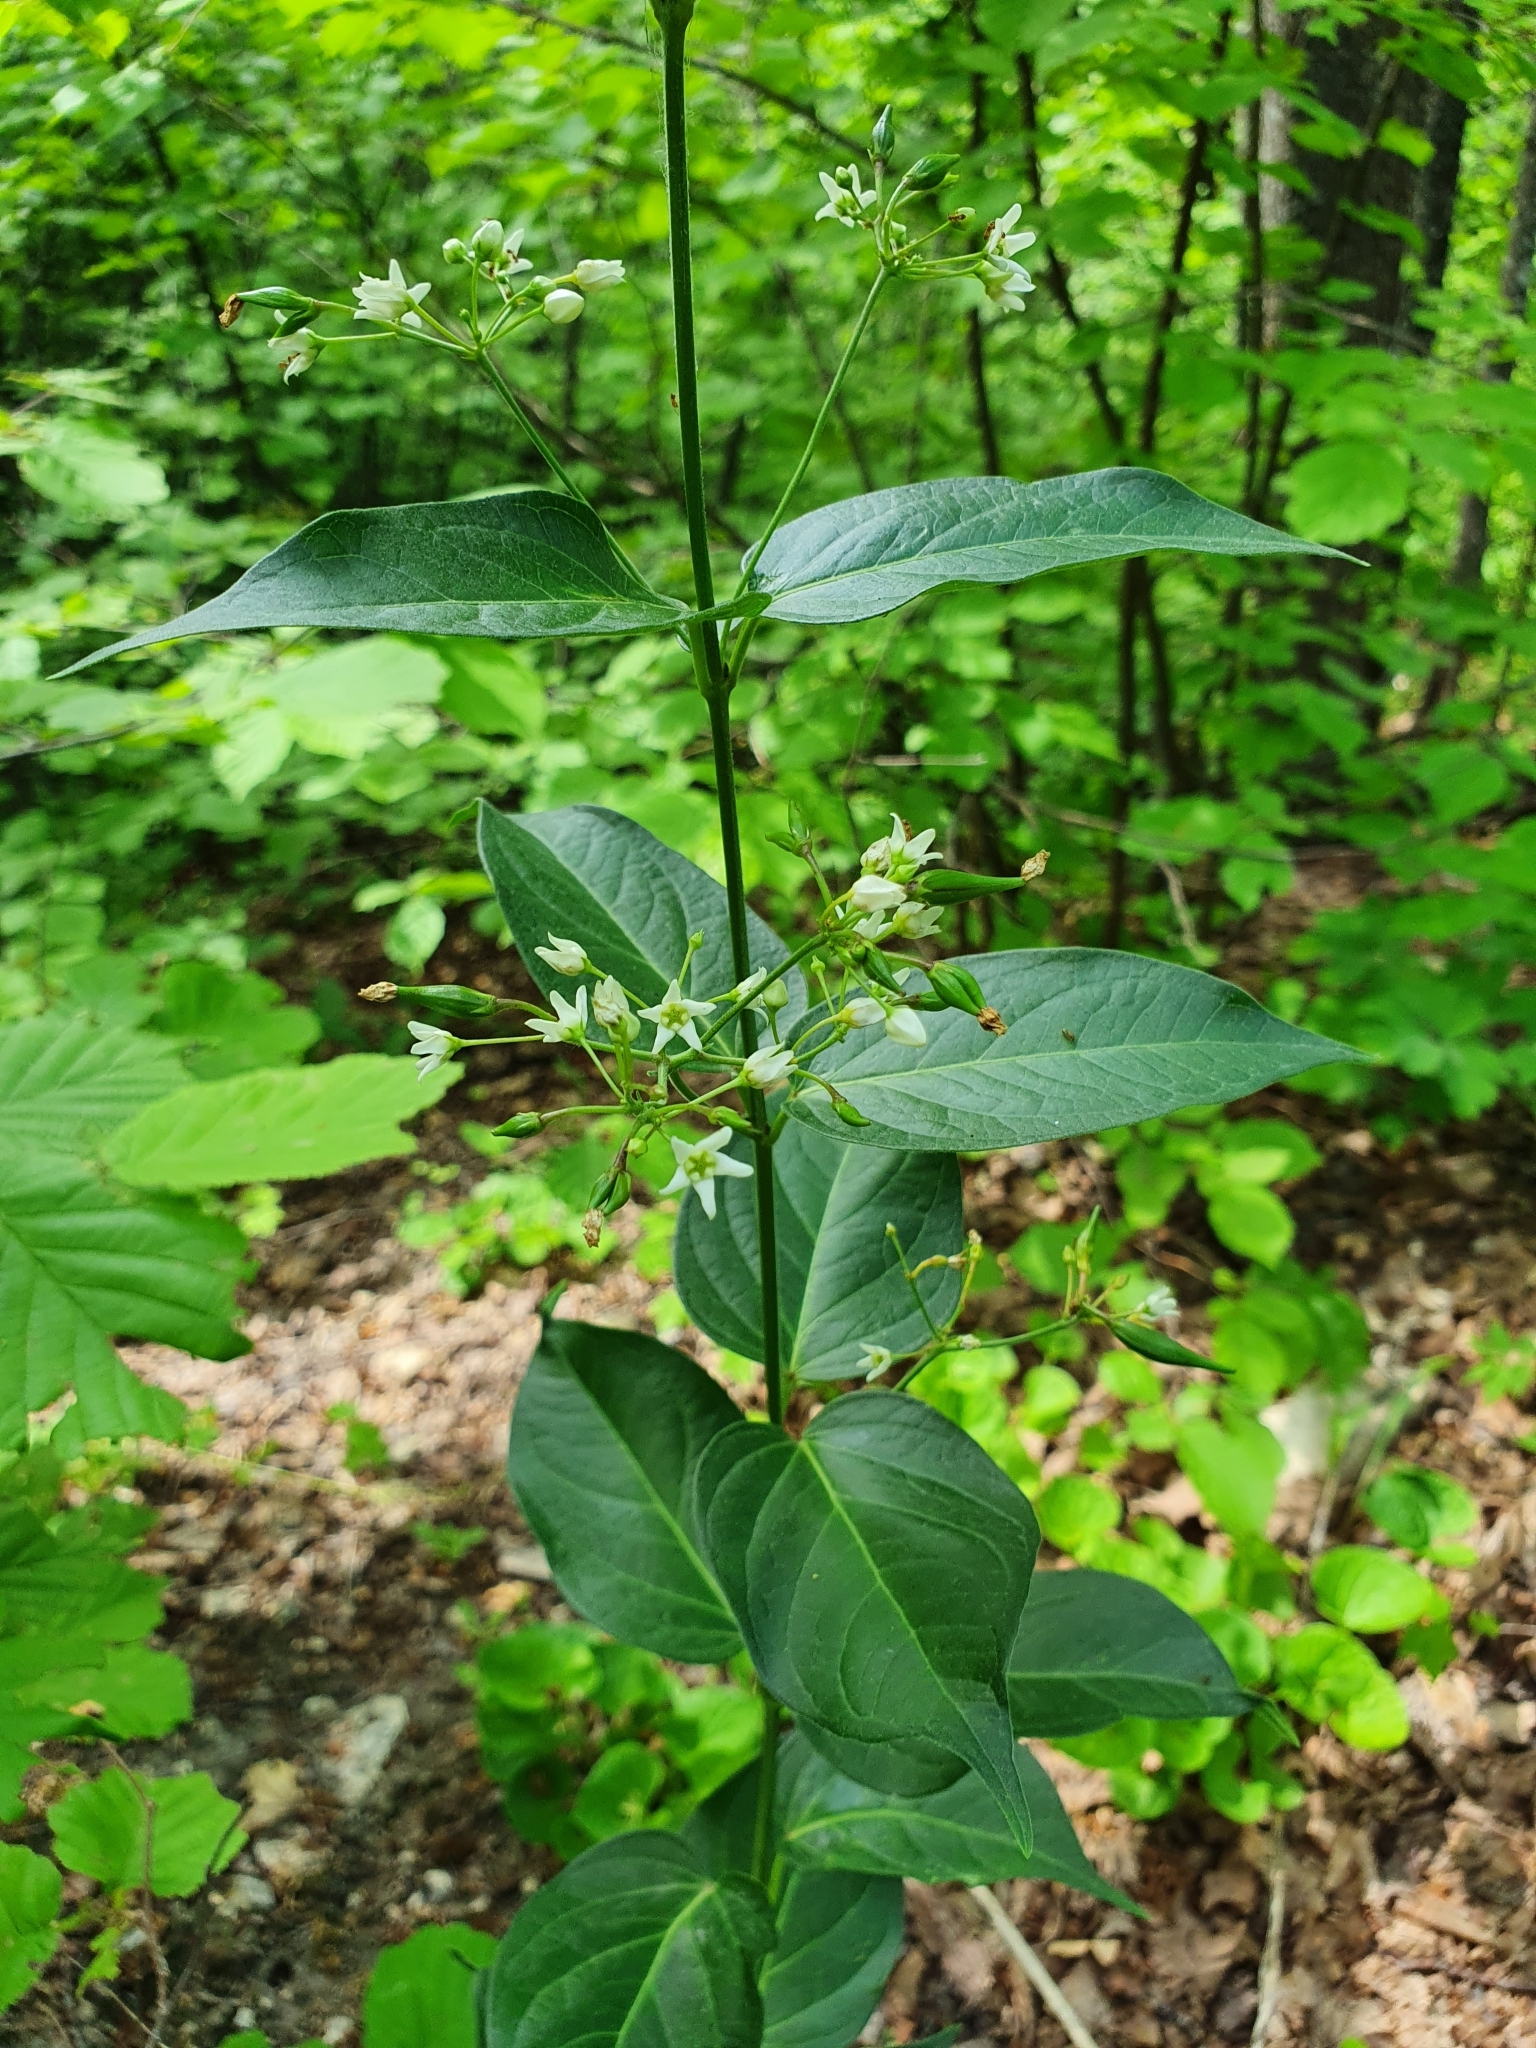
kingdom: Plantae
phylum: Tracheophyta
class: Magnoliopsida
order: Gentianales
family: Apocynaceae
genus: Vincetoxicum
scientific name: Vincetoxicum hirundinaria
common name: White swallowwort
